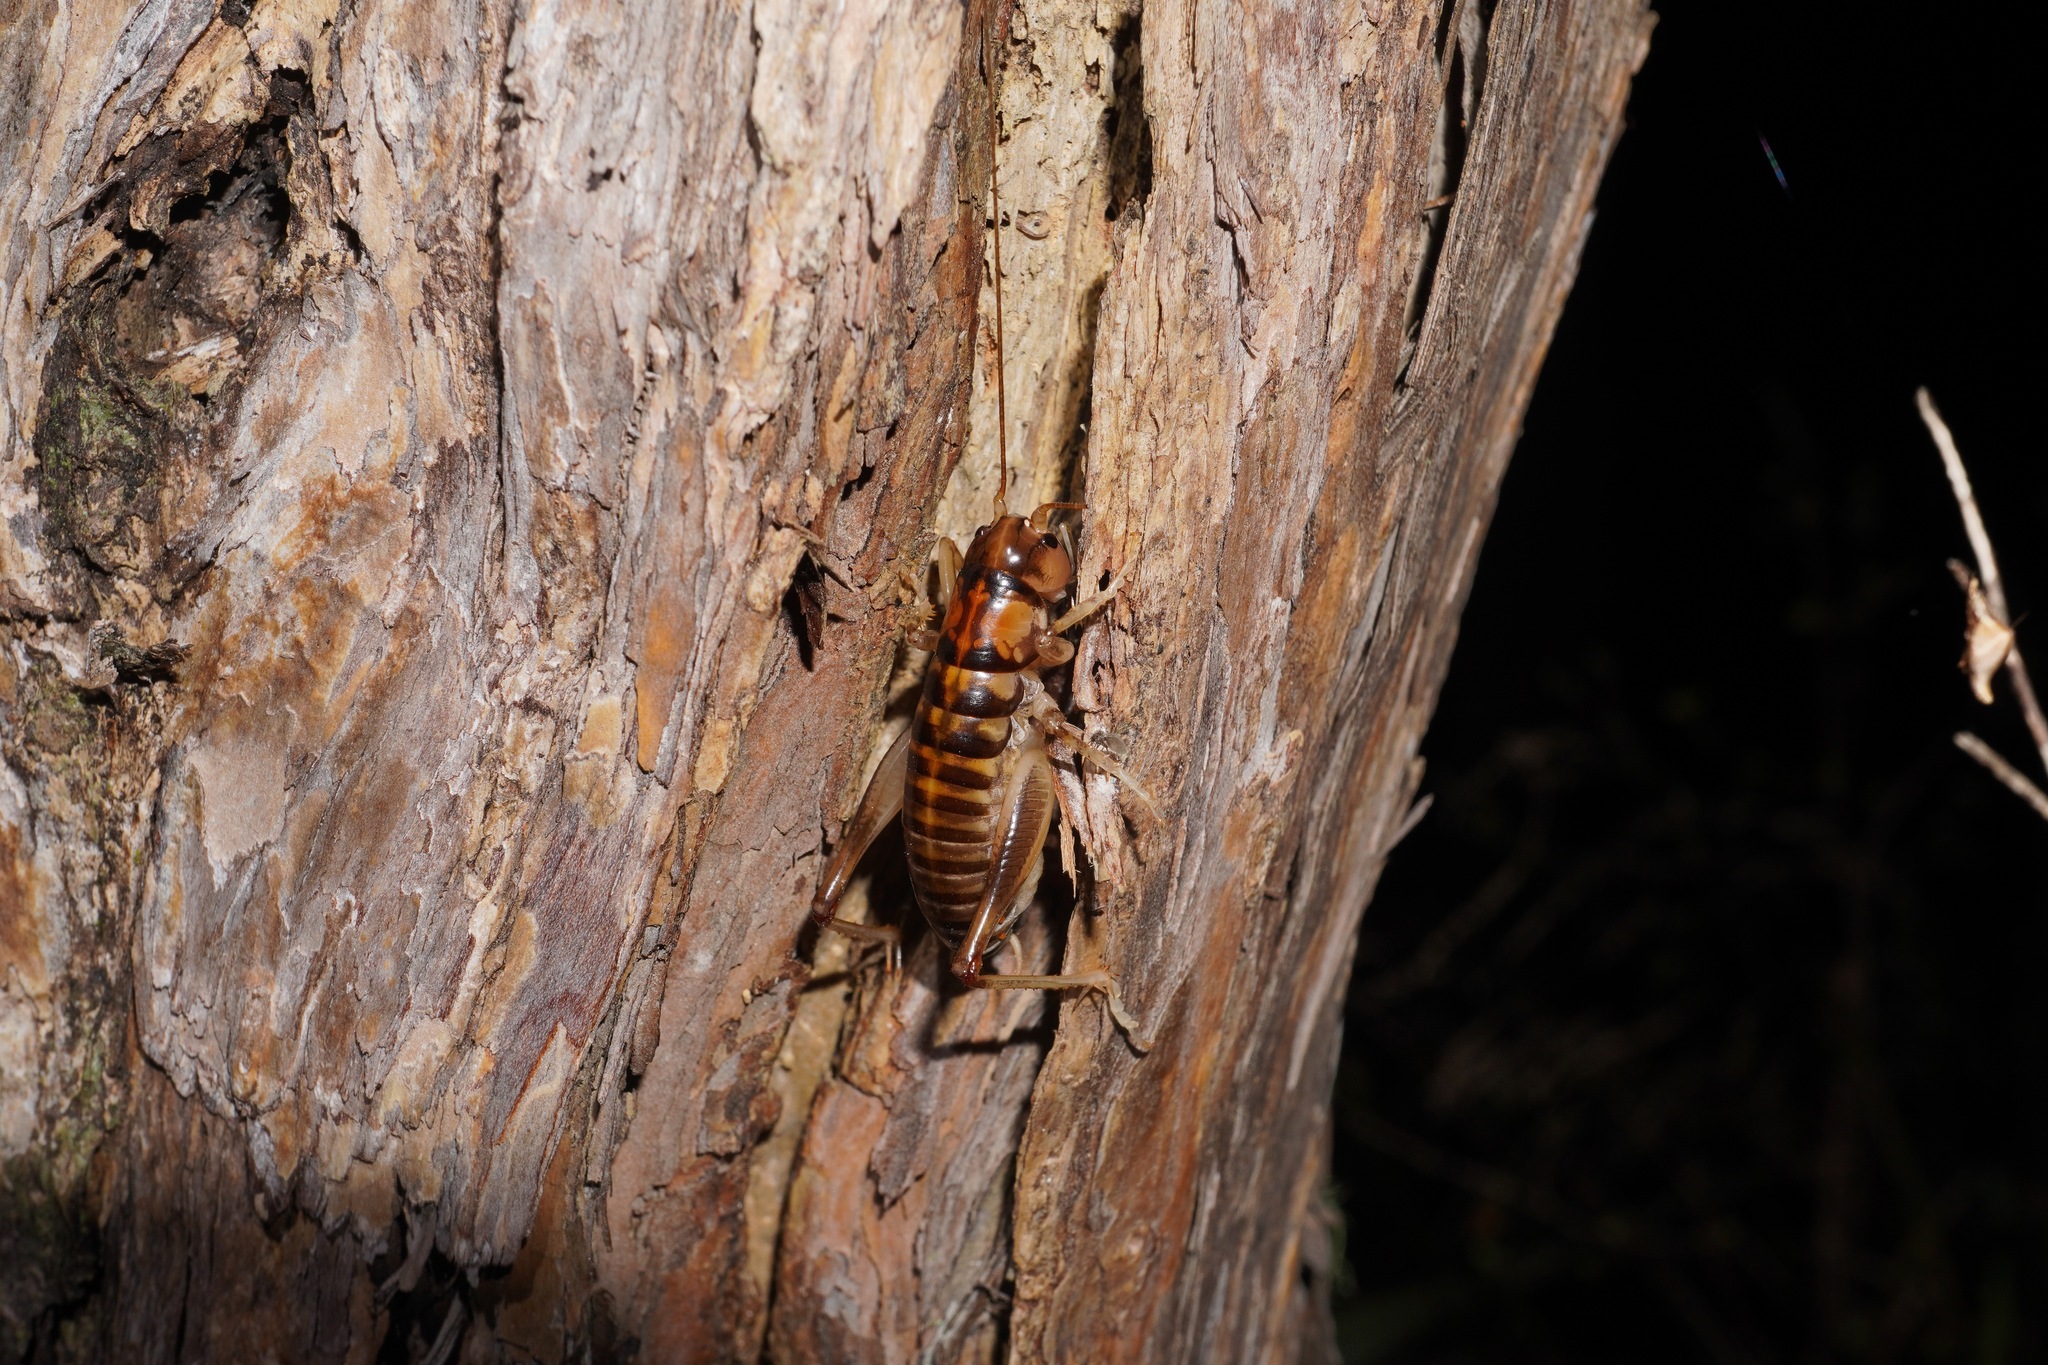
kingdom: Animalia
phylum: Arthropoda
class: Insecta
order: Orthoptera
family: Anostostomatidae
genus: Hemiandrus
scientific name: Hemiandrus pallitarsis
